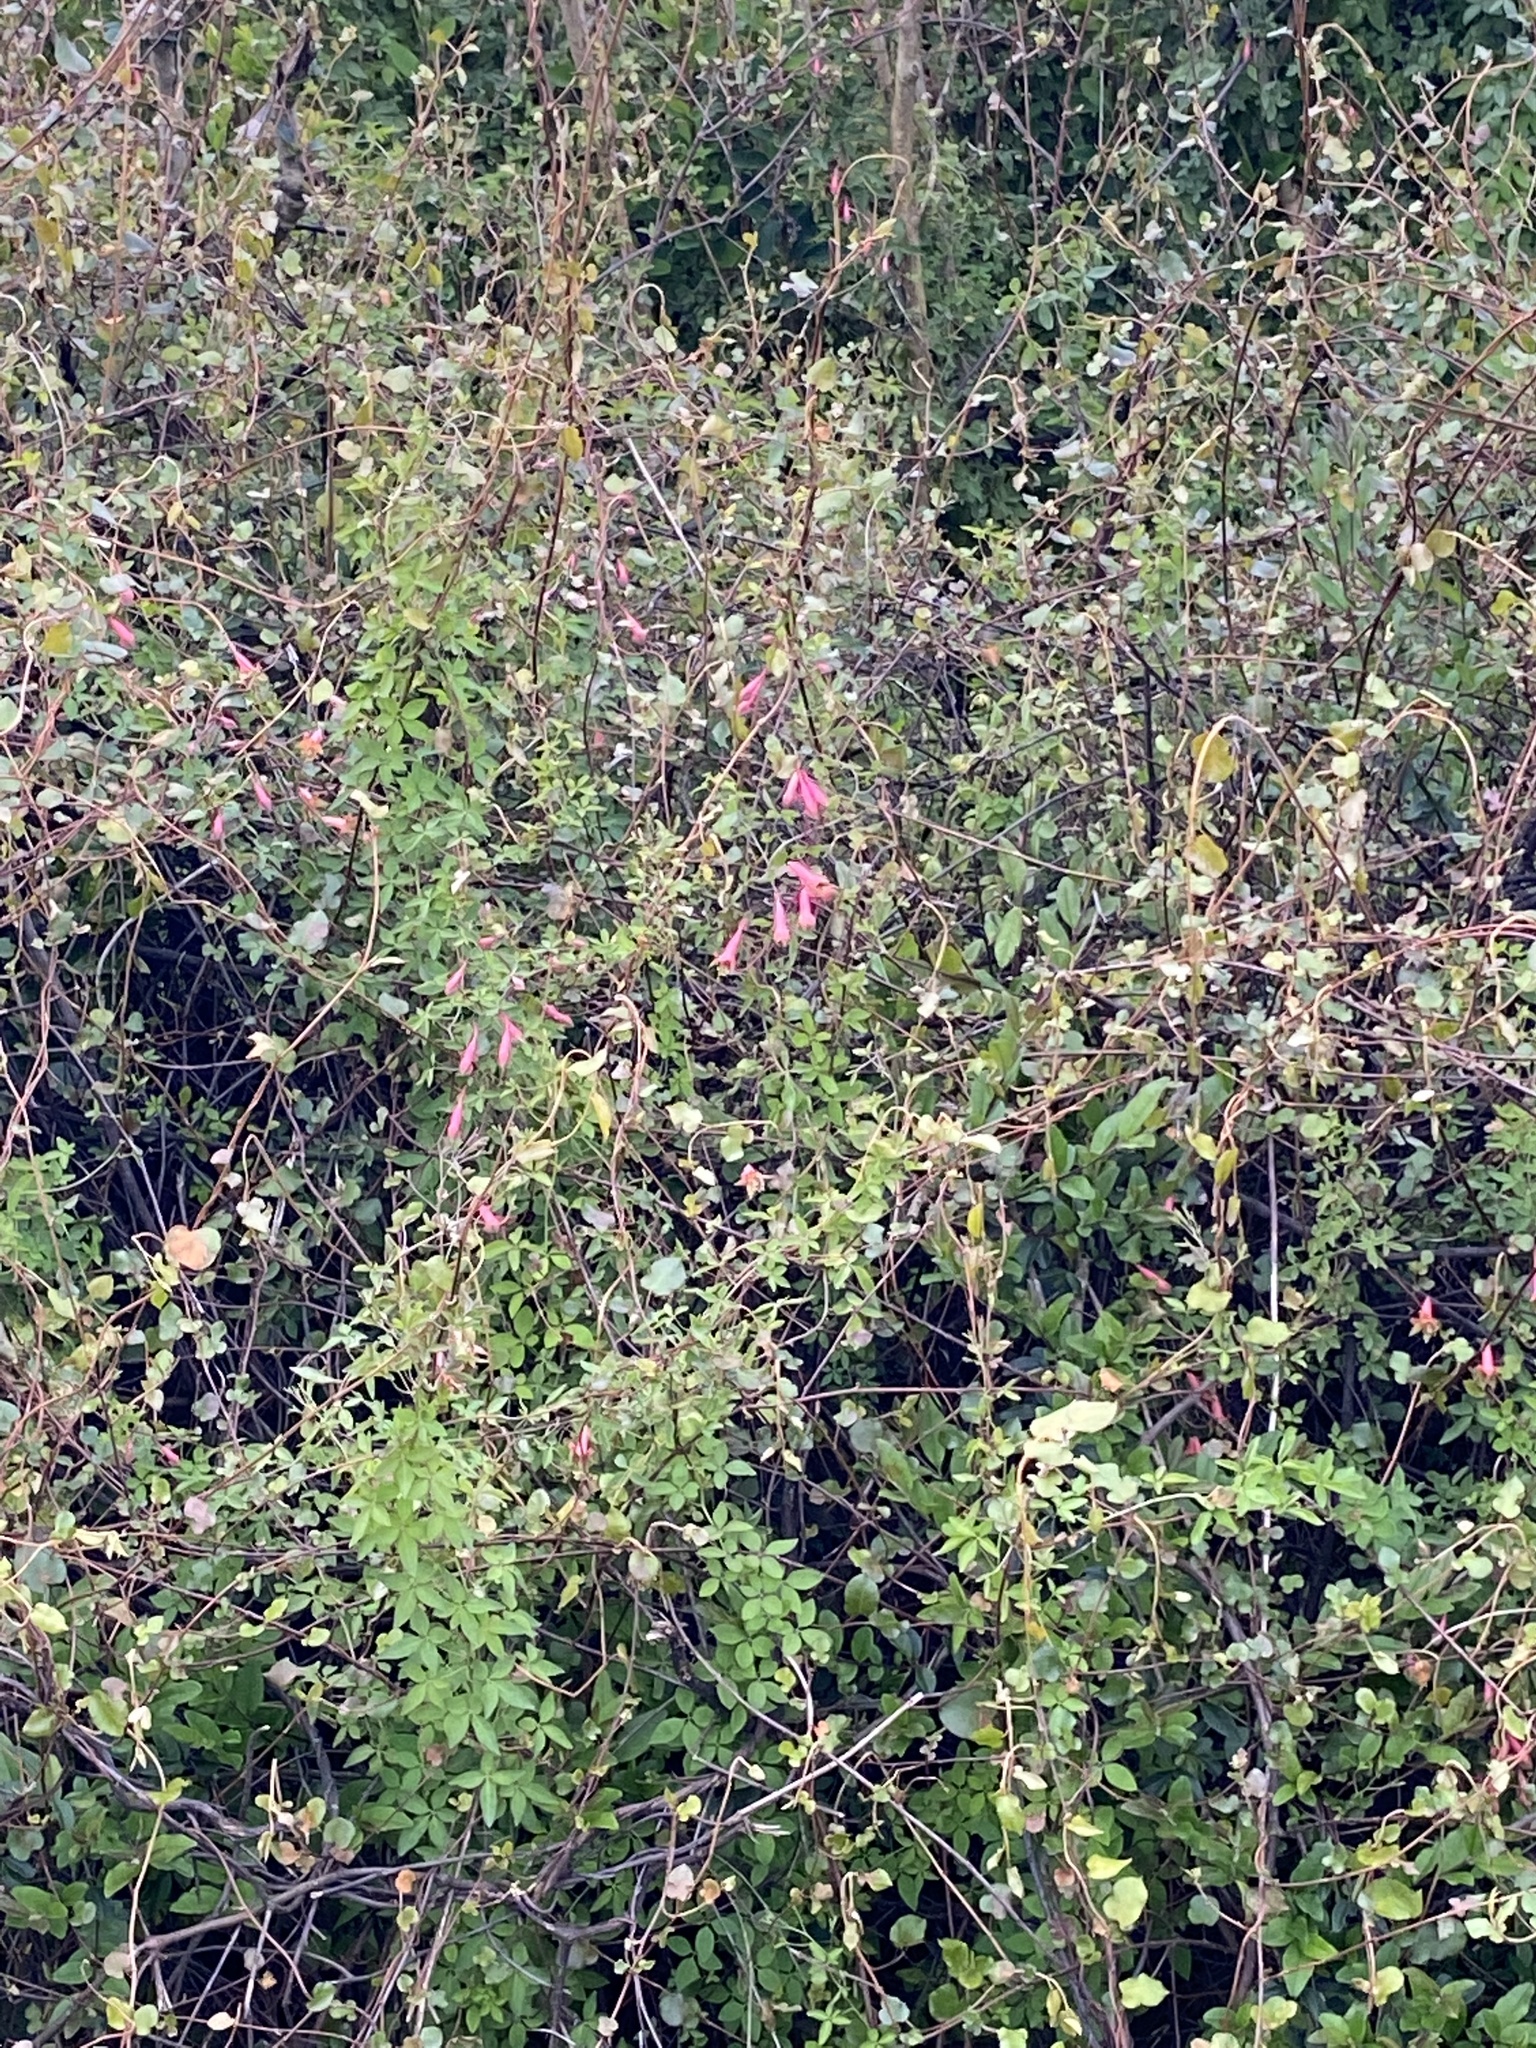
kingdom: Plantae
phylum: Tracheophyta
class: Magnoliopsida
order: Brassicales
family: Tropaeolaceae
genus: Tropaeolum
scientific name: Tropaeolum pentaphyllum
